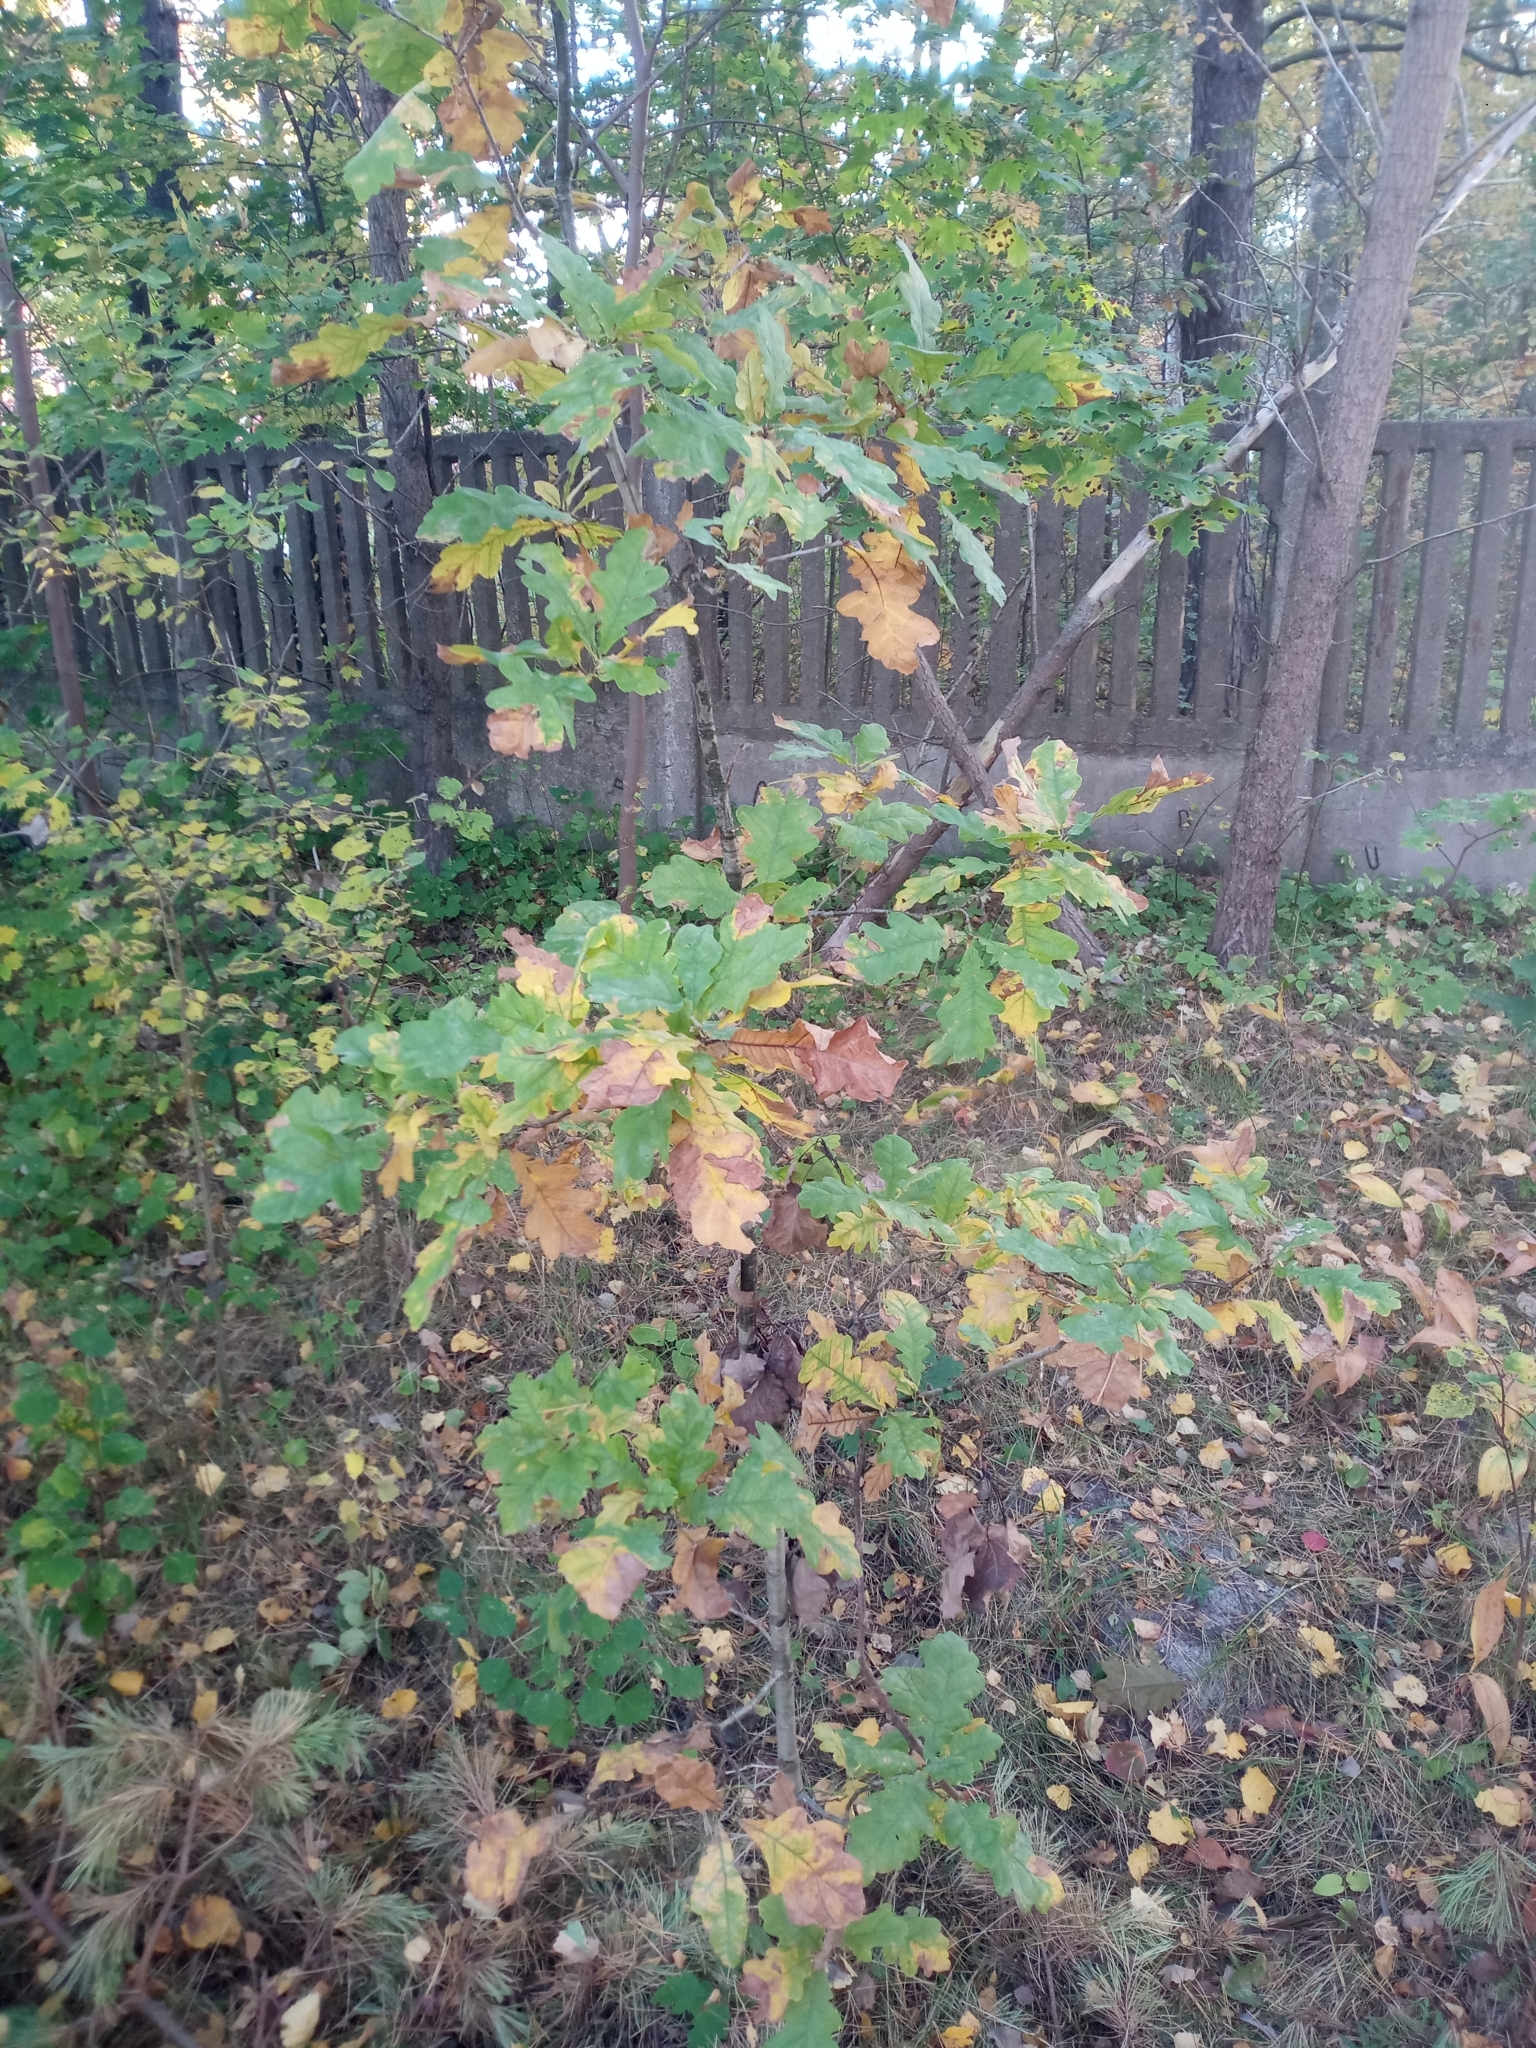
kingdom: Plantae
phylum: Tracheophyta
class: Magnoliopsida
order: Fagales
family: Fagaceae
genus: Quercus
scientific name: Quercus robur
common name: Pedunculate oak
